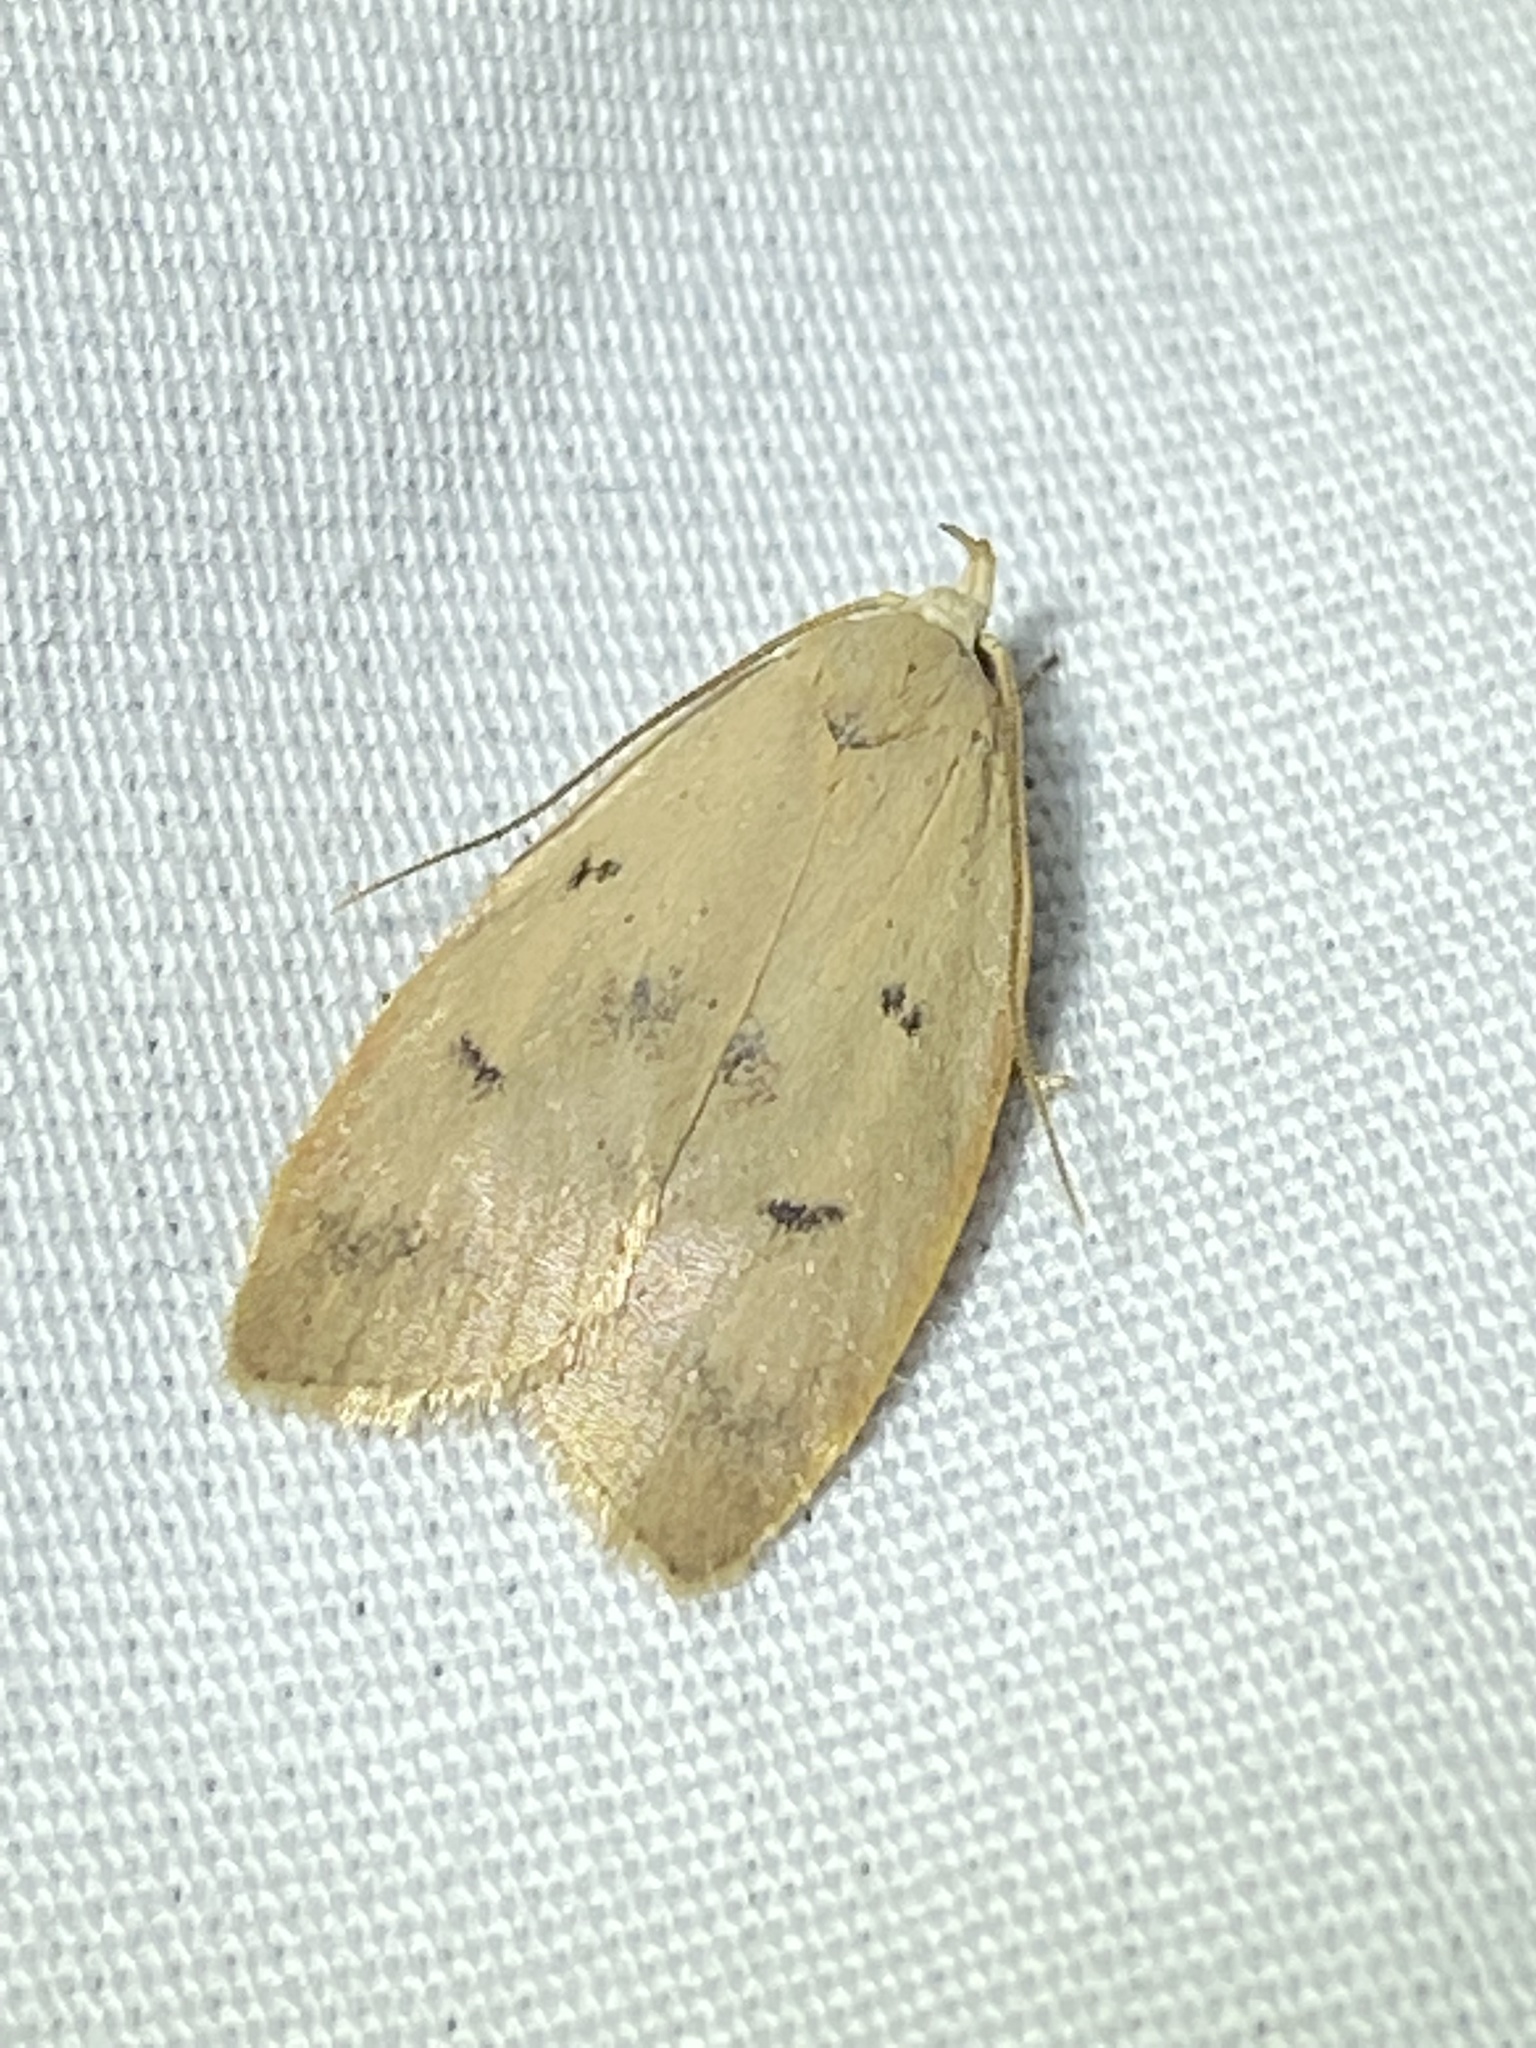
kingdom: Animalia
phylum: Arthropoda
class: Insecta
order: Lepidoptera
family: Peleopodidae
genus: Machimia
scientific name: Machimia tentoriferella
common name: Gold-striped leaftier moth
